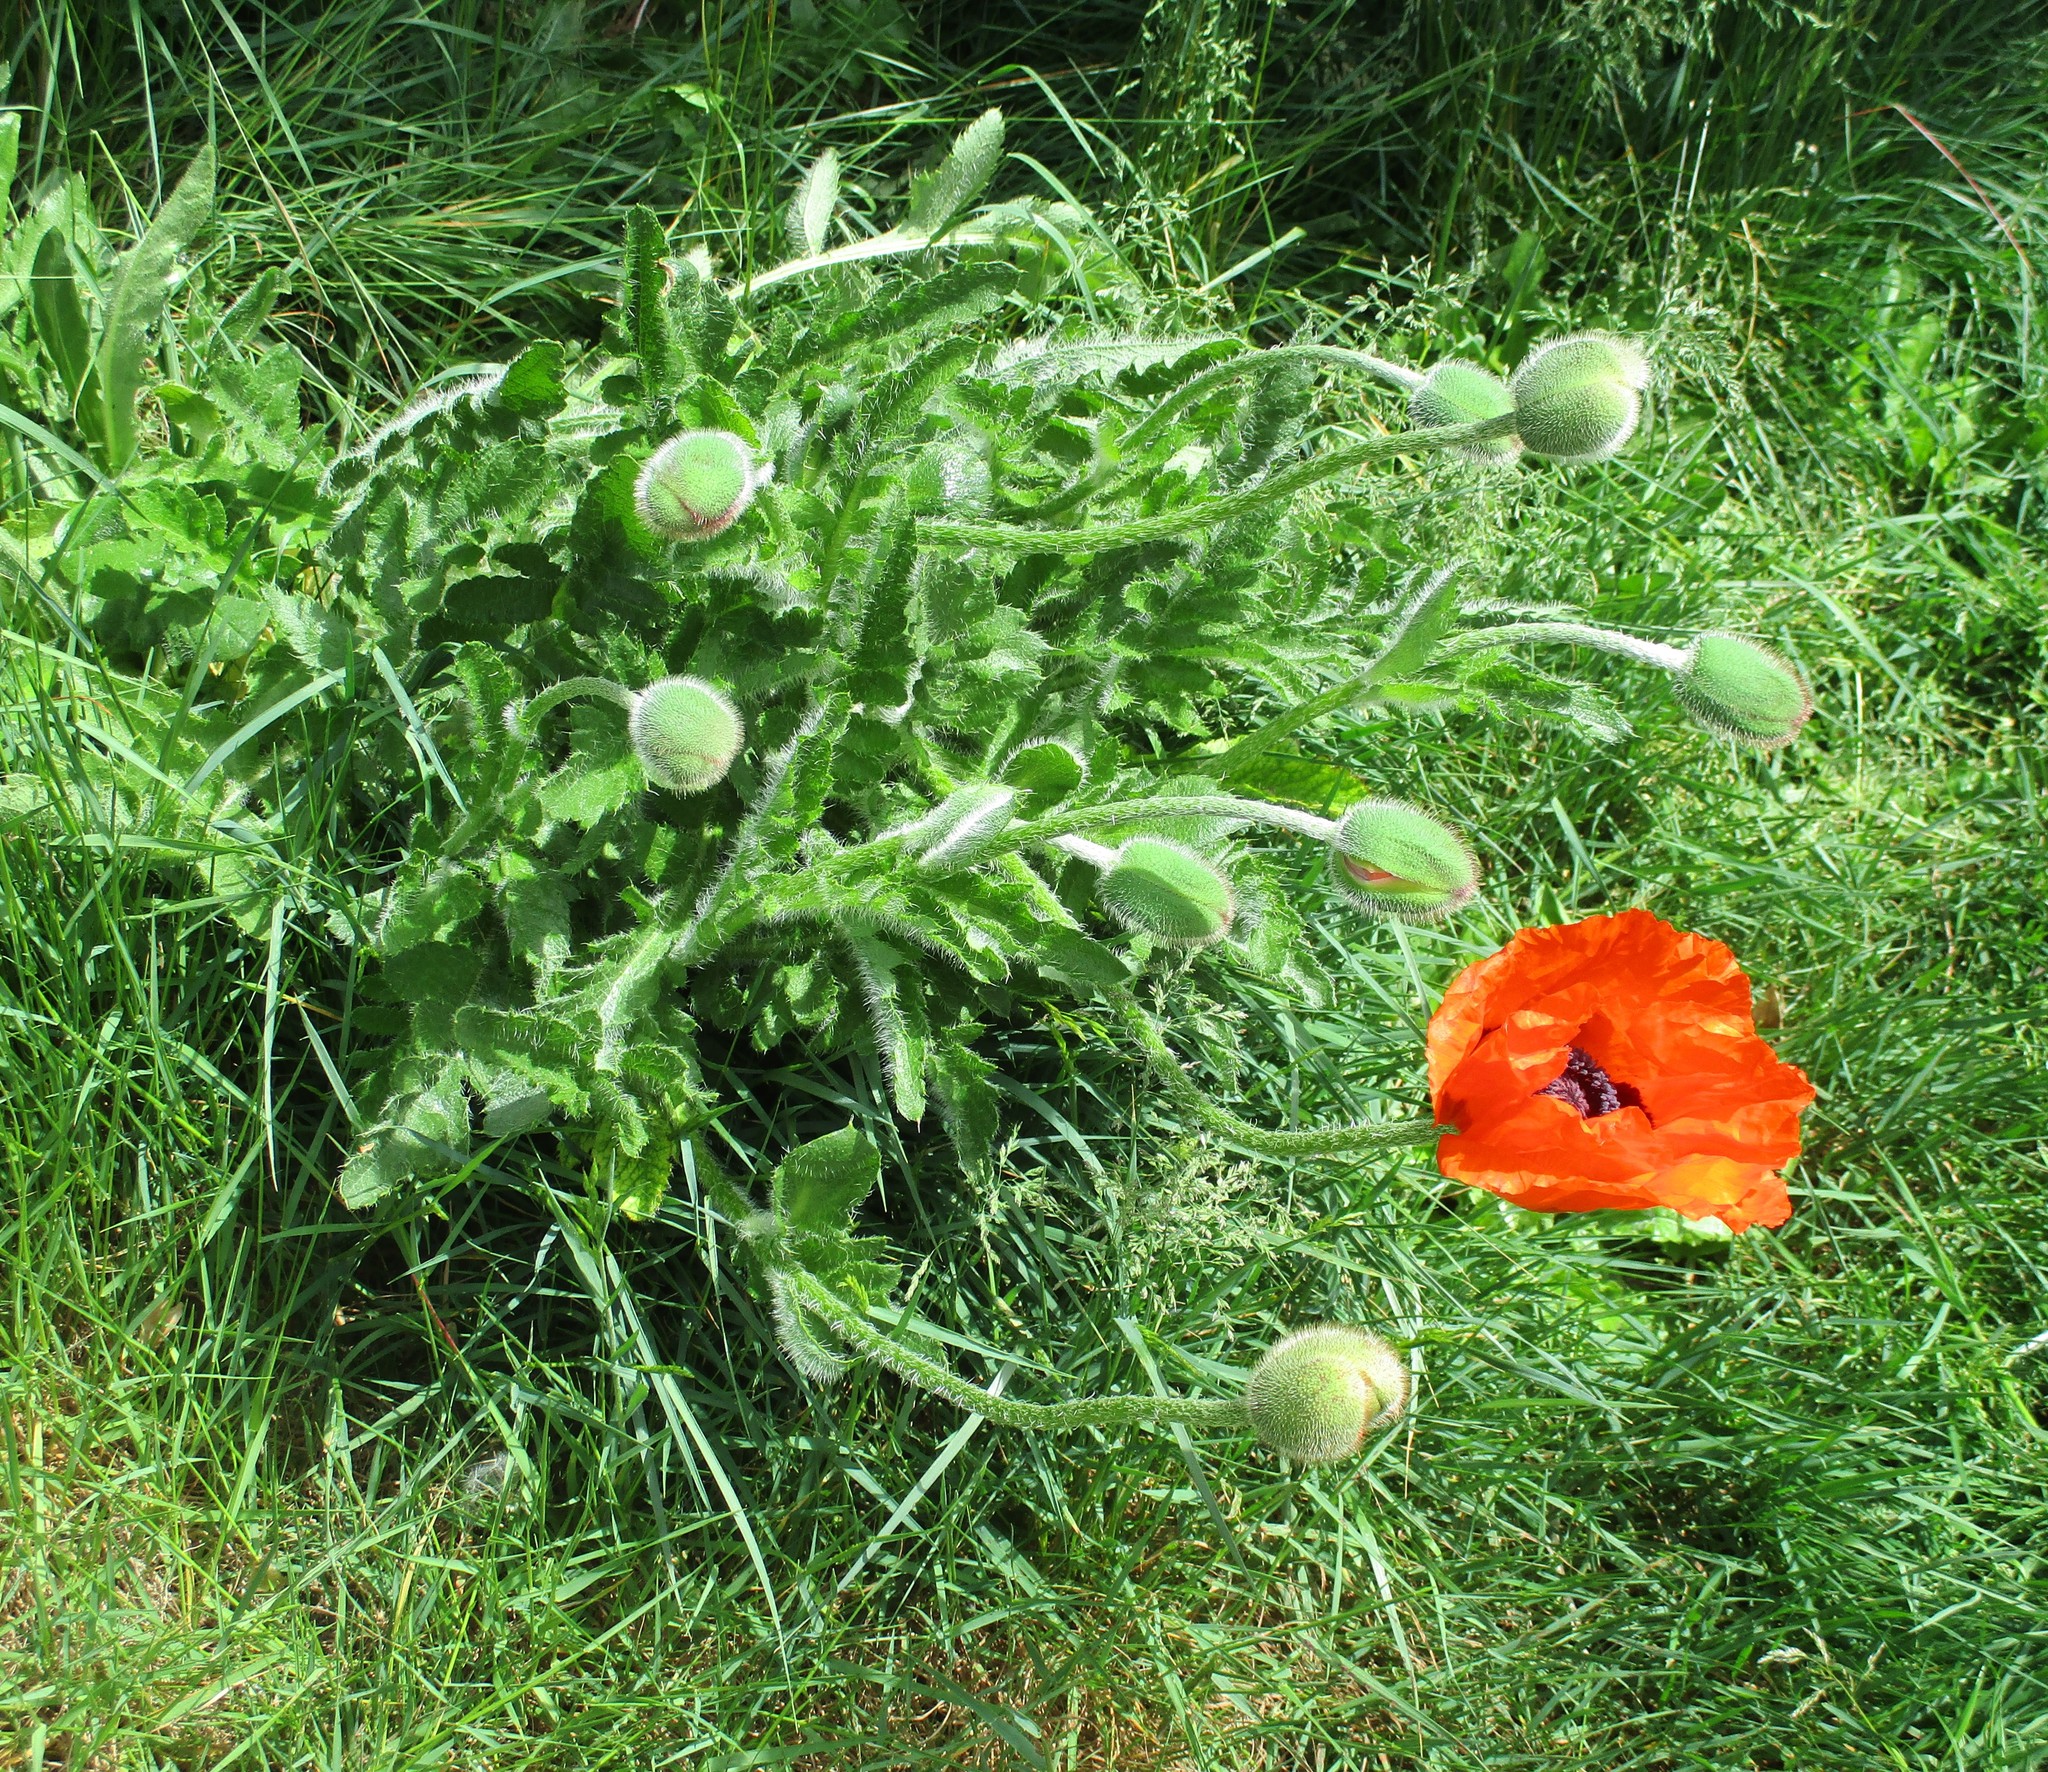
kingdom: Plantae
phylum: Tracheophyta
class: Magnoliopsida
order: Ranunculales
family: Papaveraceae
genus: Papaver
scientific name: Papaver orientale
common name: Oriental poppy
